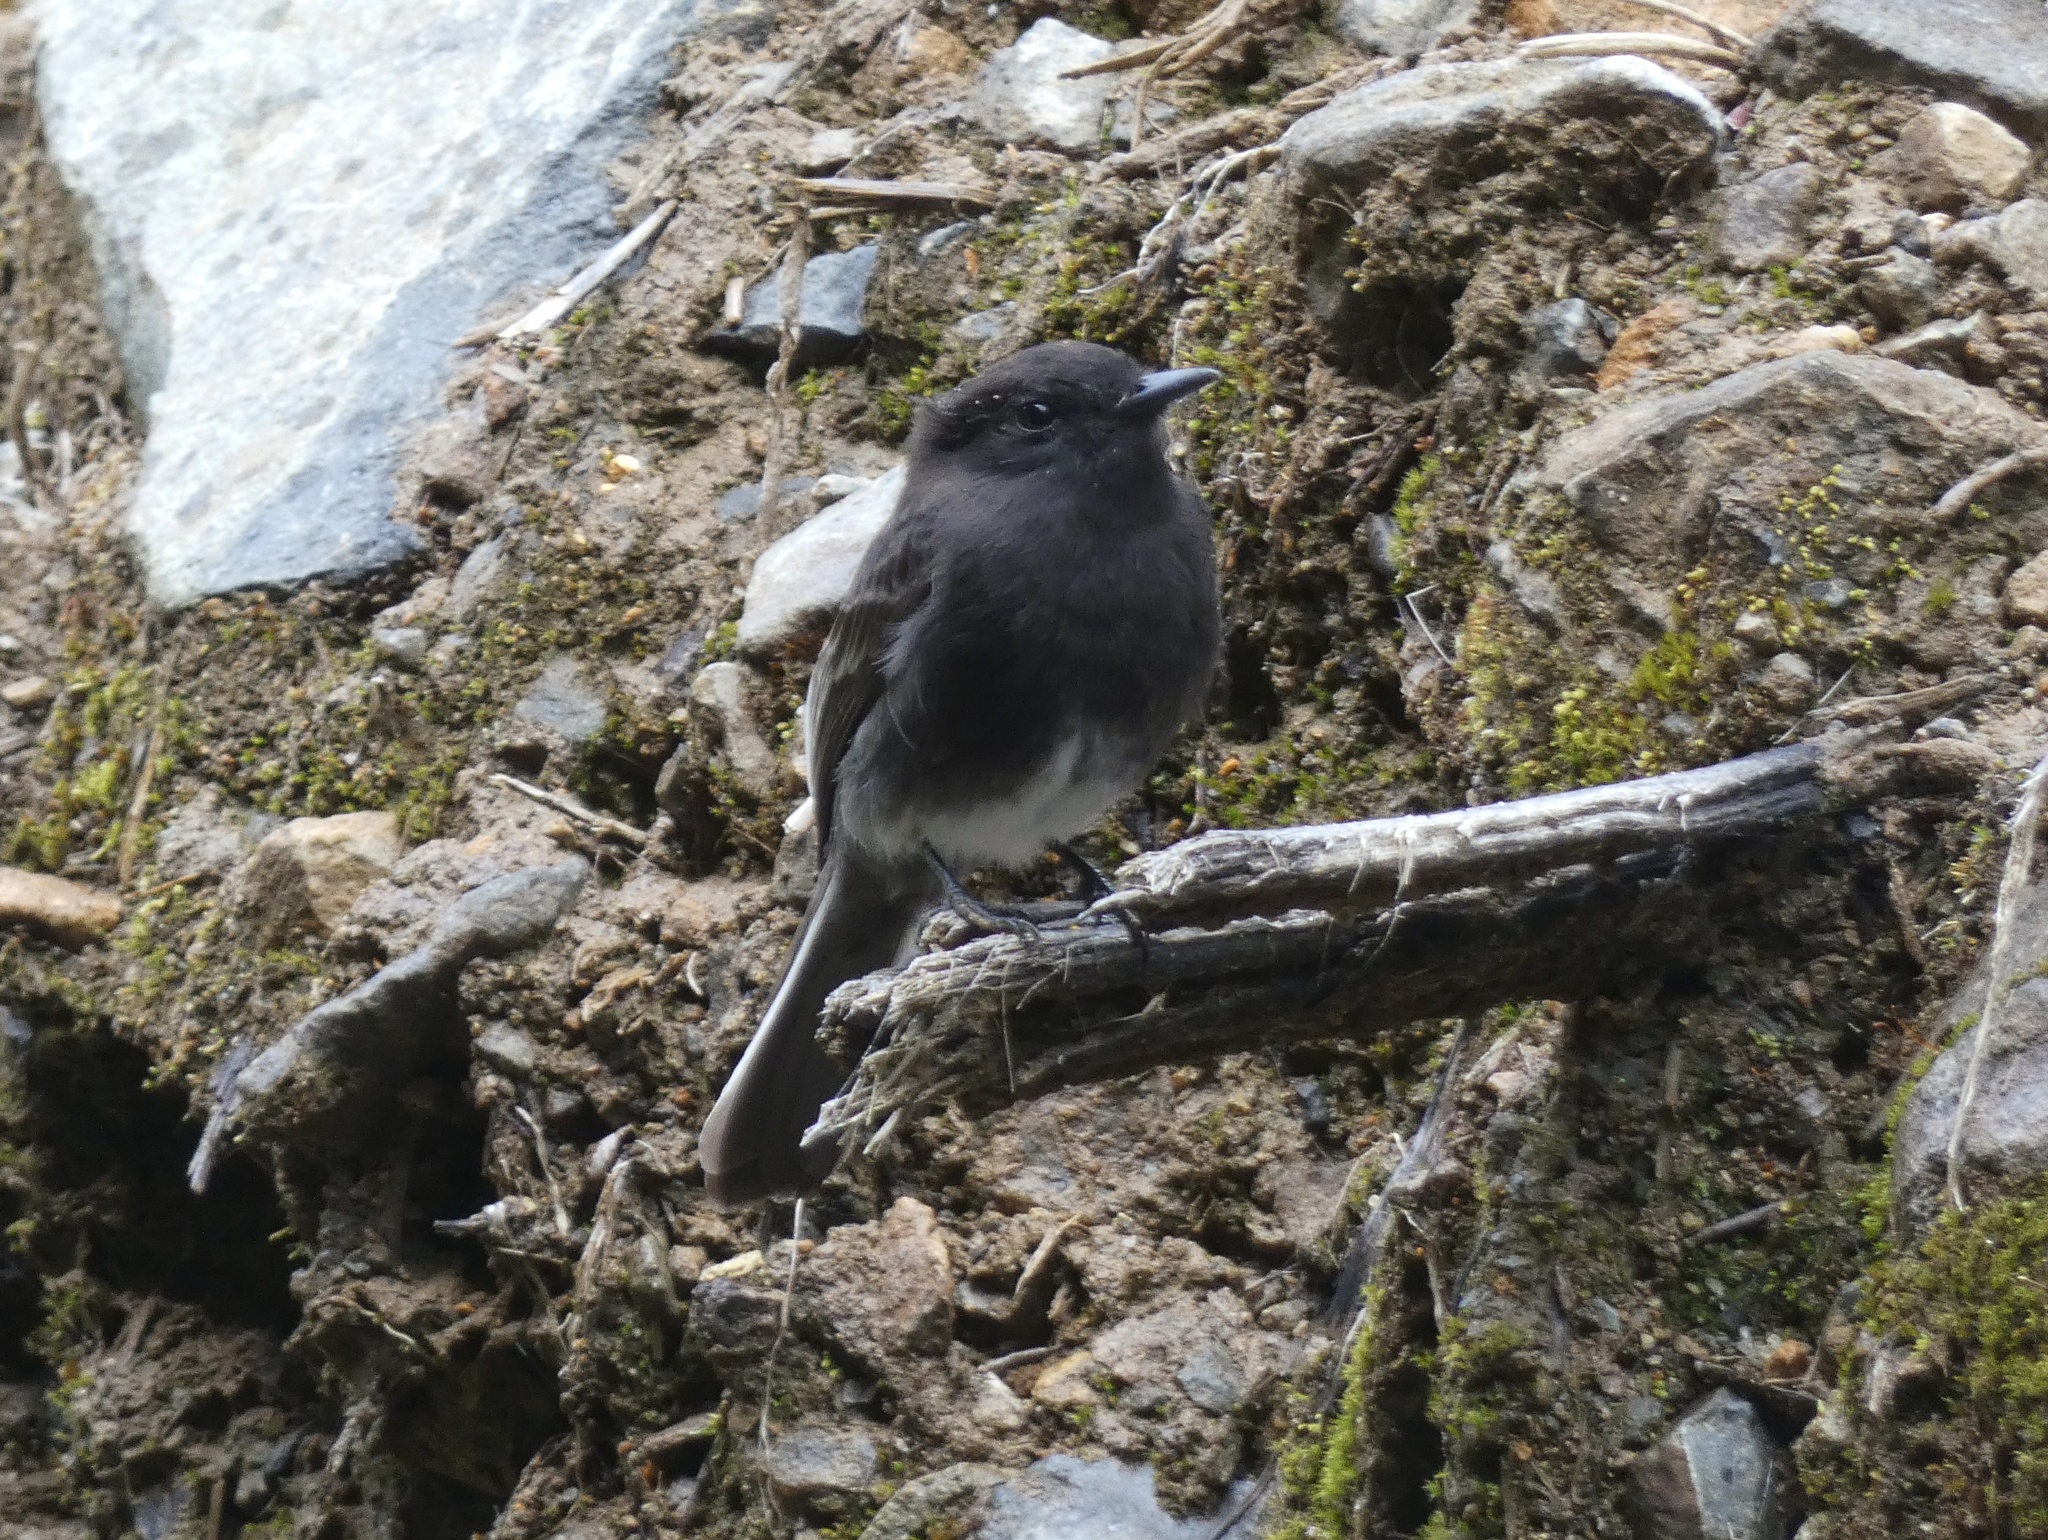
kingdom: Animalia
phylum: Chordata
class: Aves
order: Passeriformes
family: Tyrannidae
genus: Sayornis
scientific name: Sayornis nigricans
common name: Black phoebe
